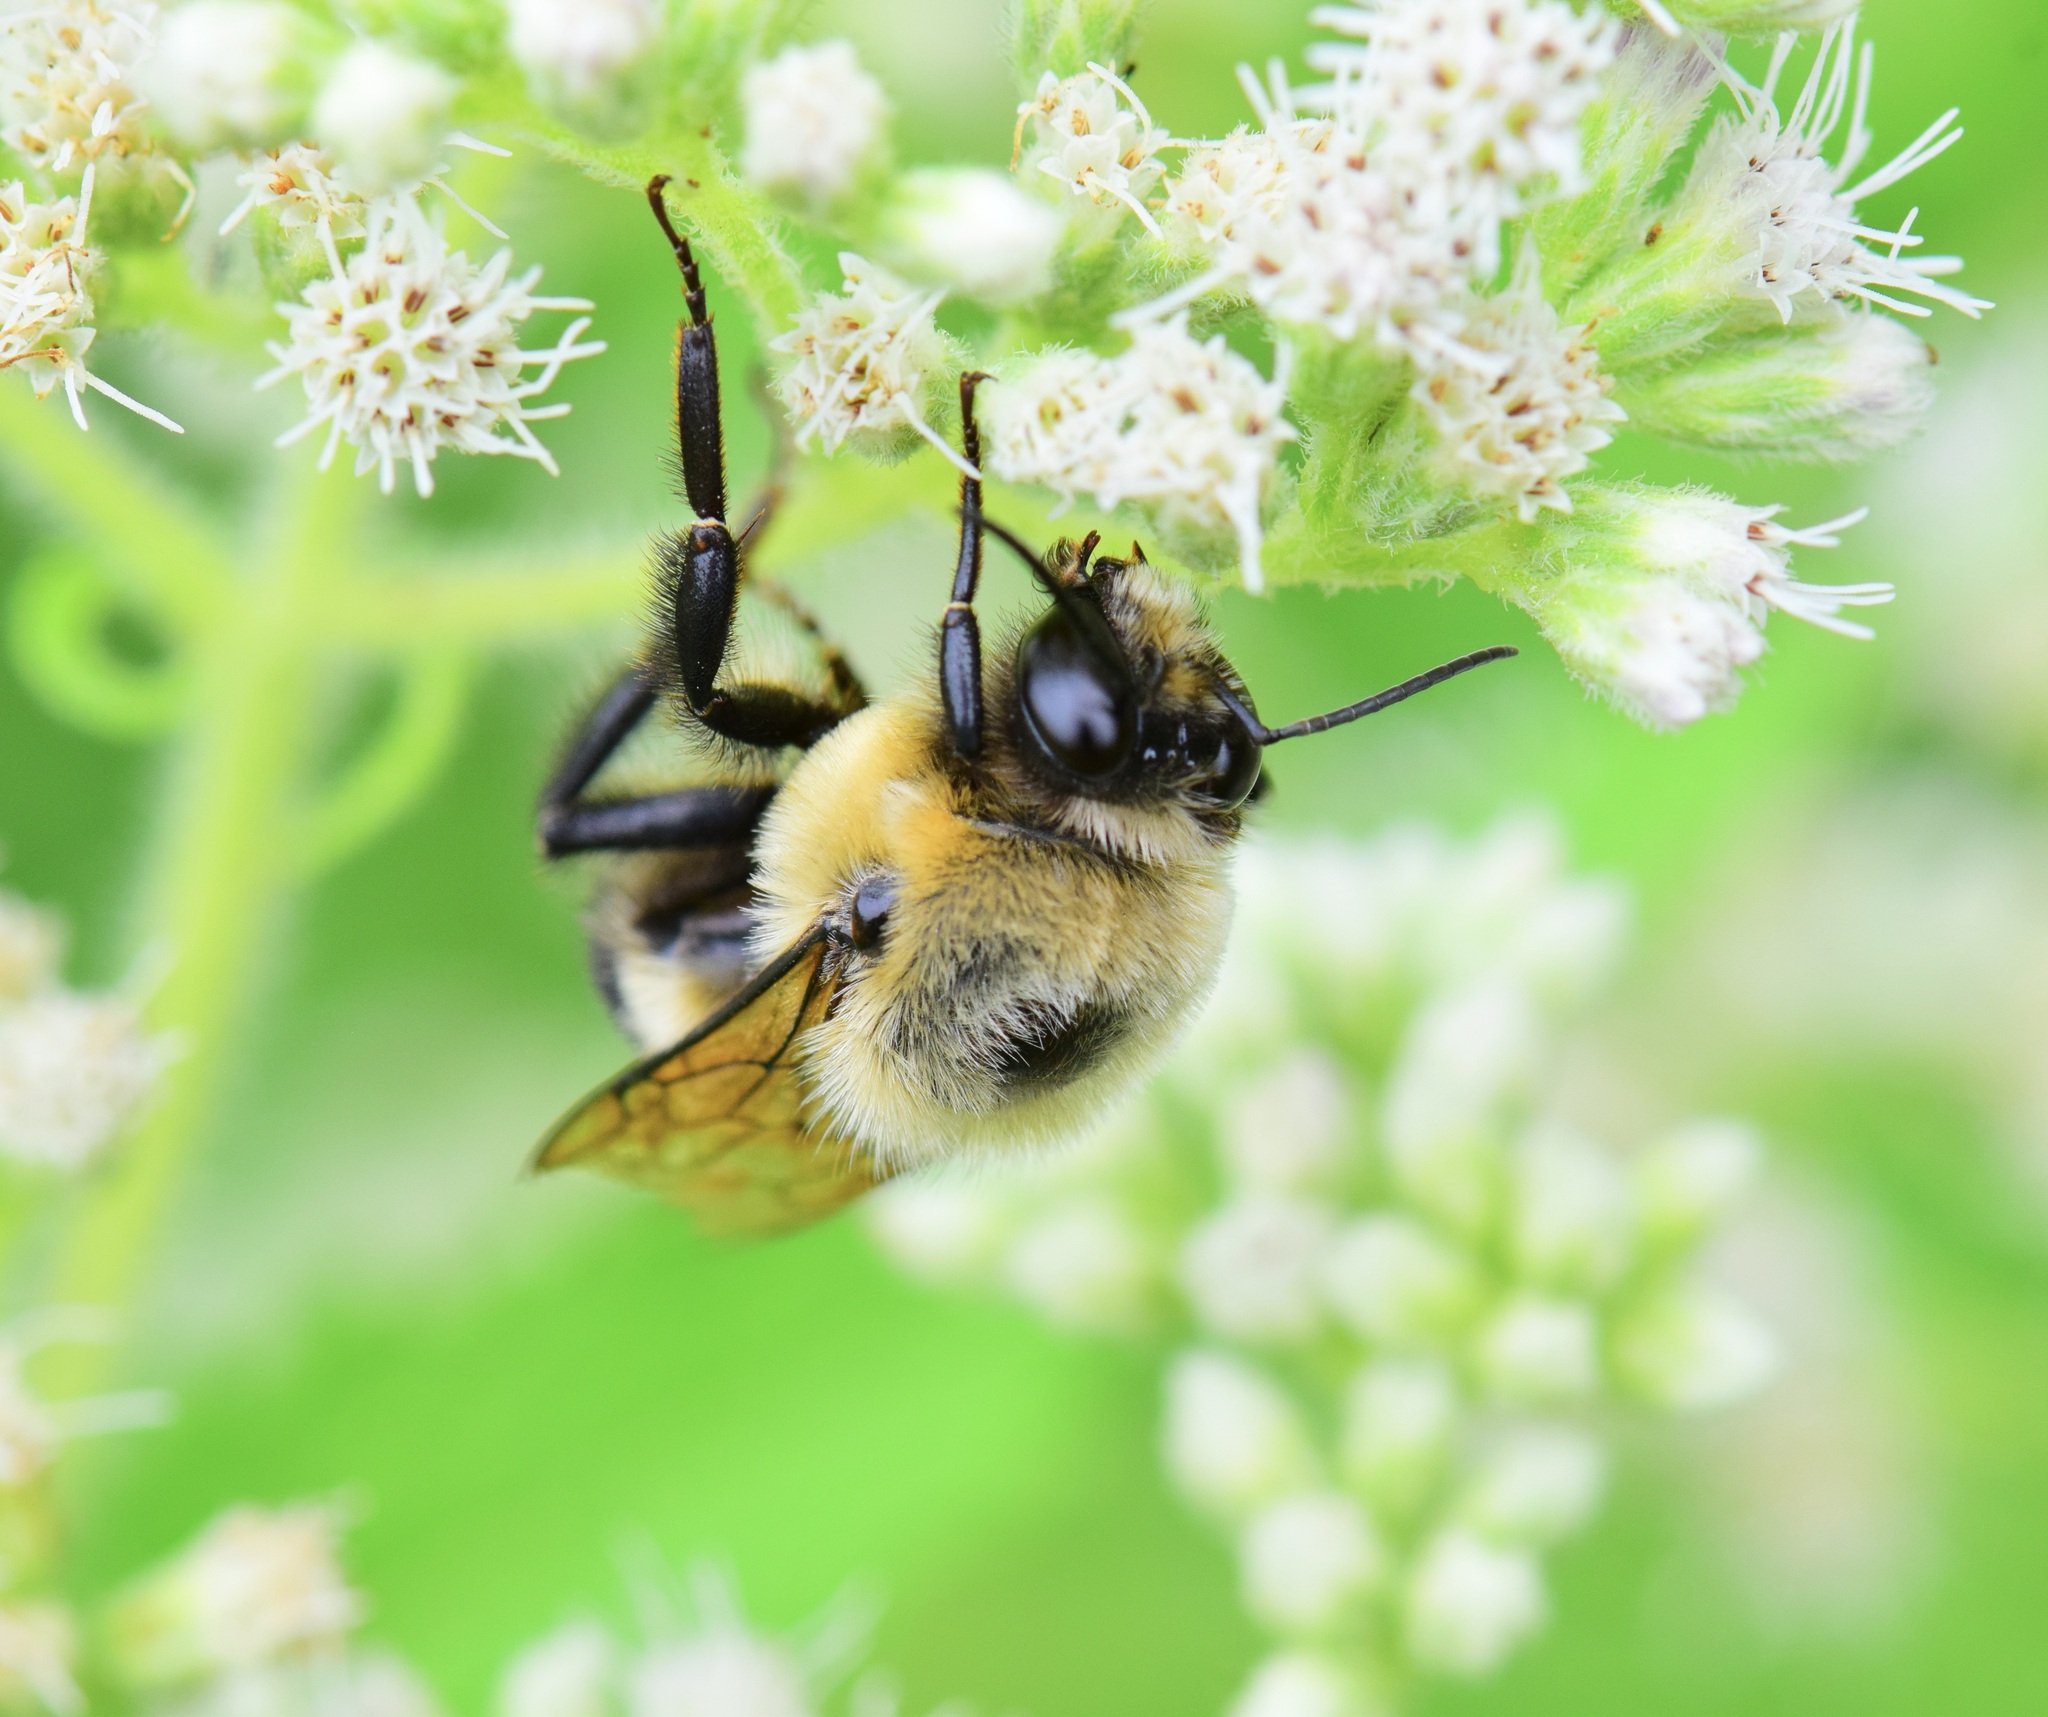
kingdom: Animalia
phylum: Arthropoda
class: Insecta
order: Hymenoptera
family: Apidae
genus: Bombus
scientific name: Bombus griseocollis
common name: Brown-belted bumble bee
